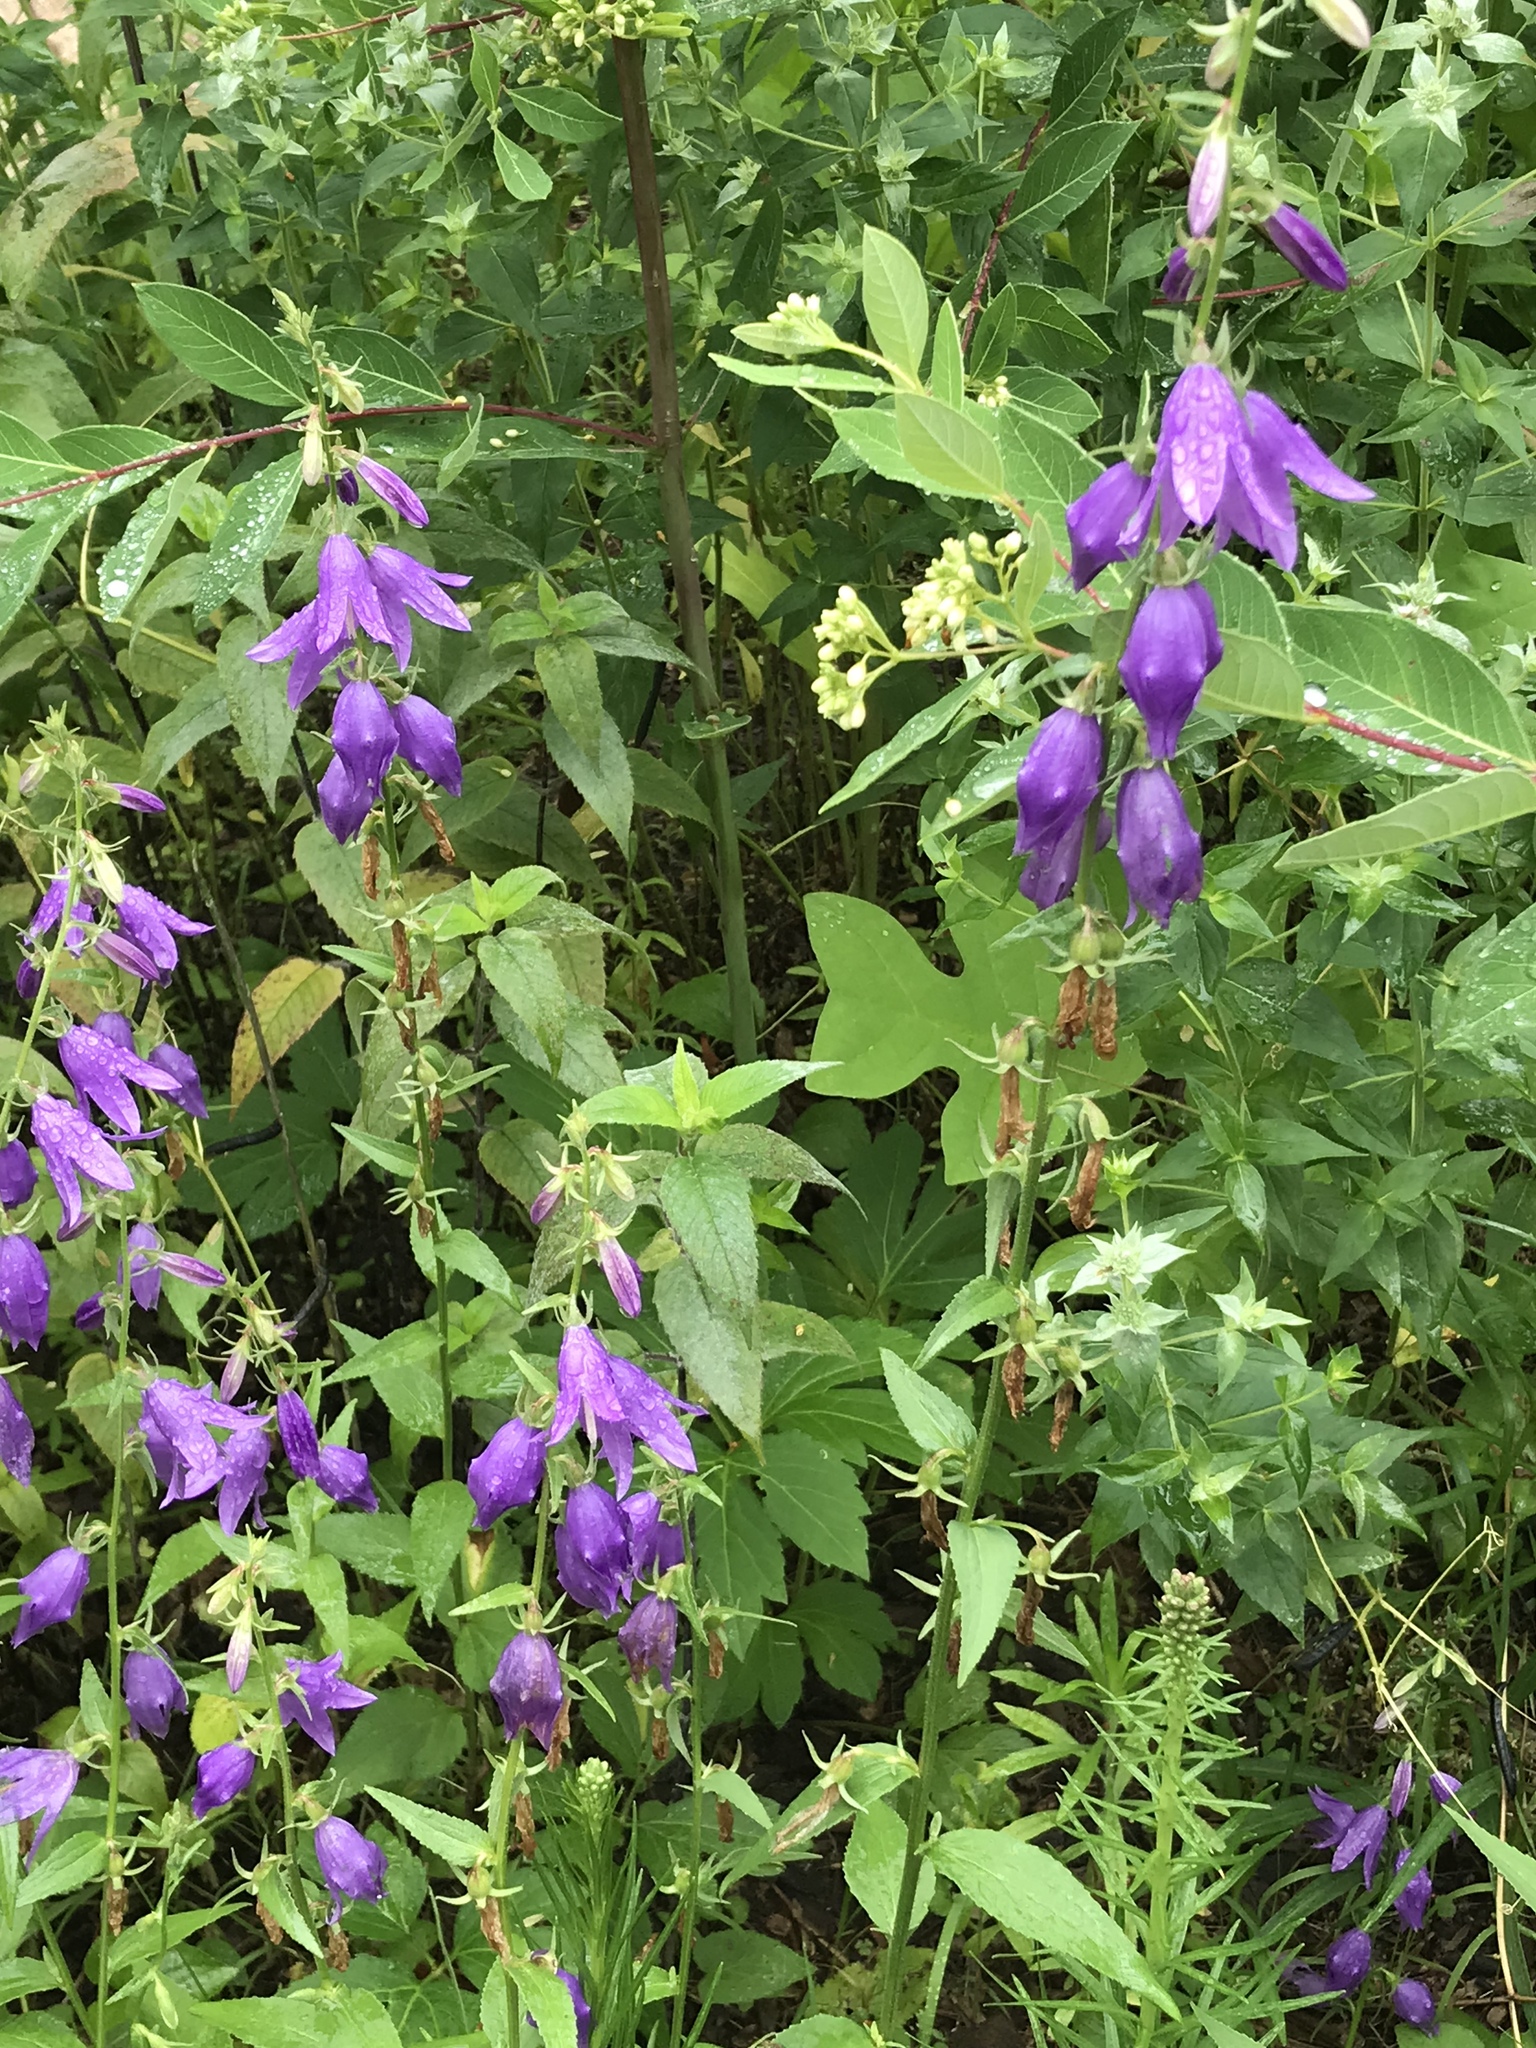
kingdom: Plantae
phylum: Tracheophyta
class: Magnoliopsida
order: Asterales
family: Campanulaceae
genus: Campanula
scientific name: Campanula rapunculoides
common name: Creeping bellflower
